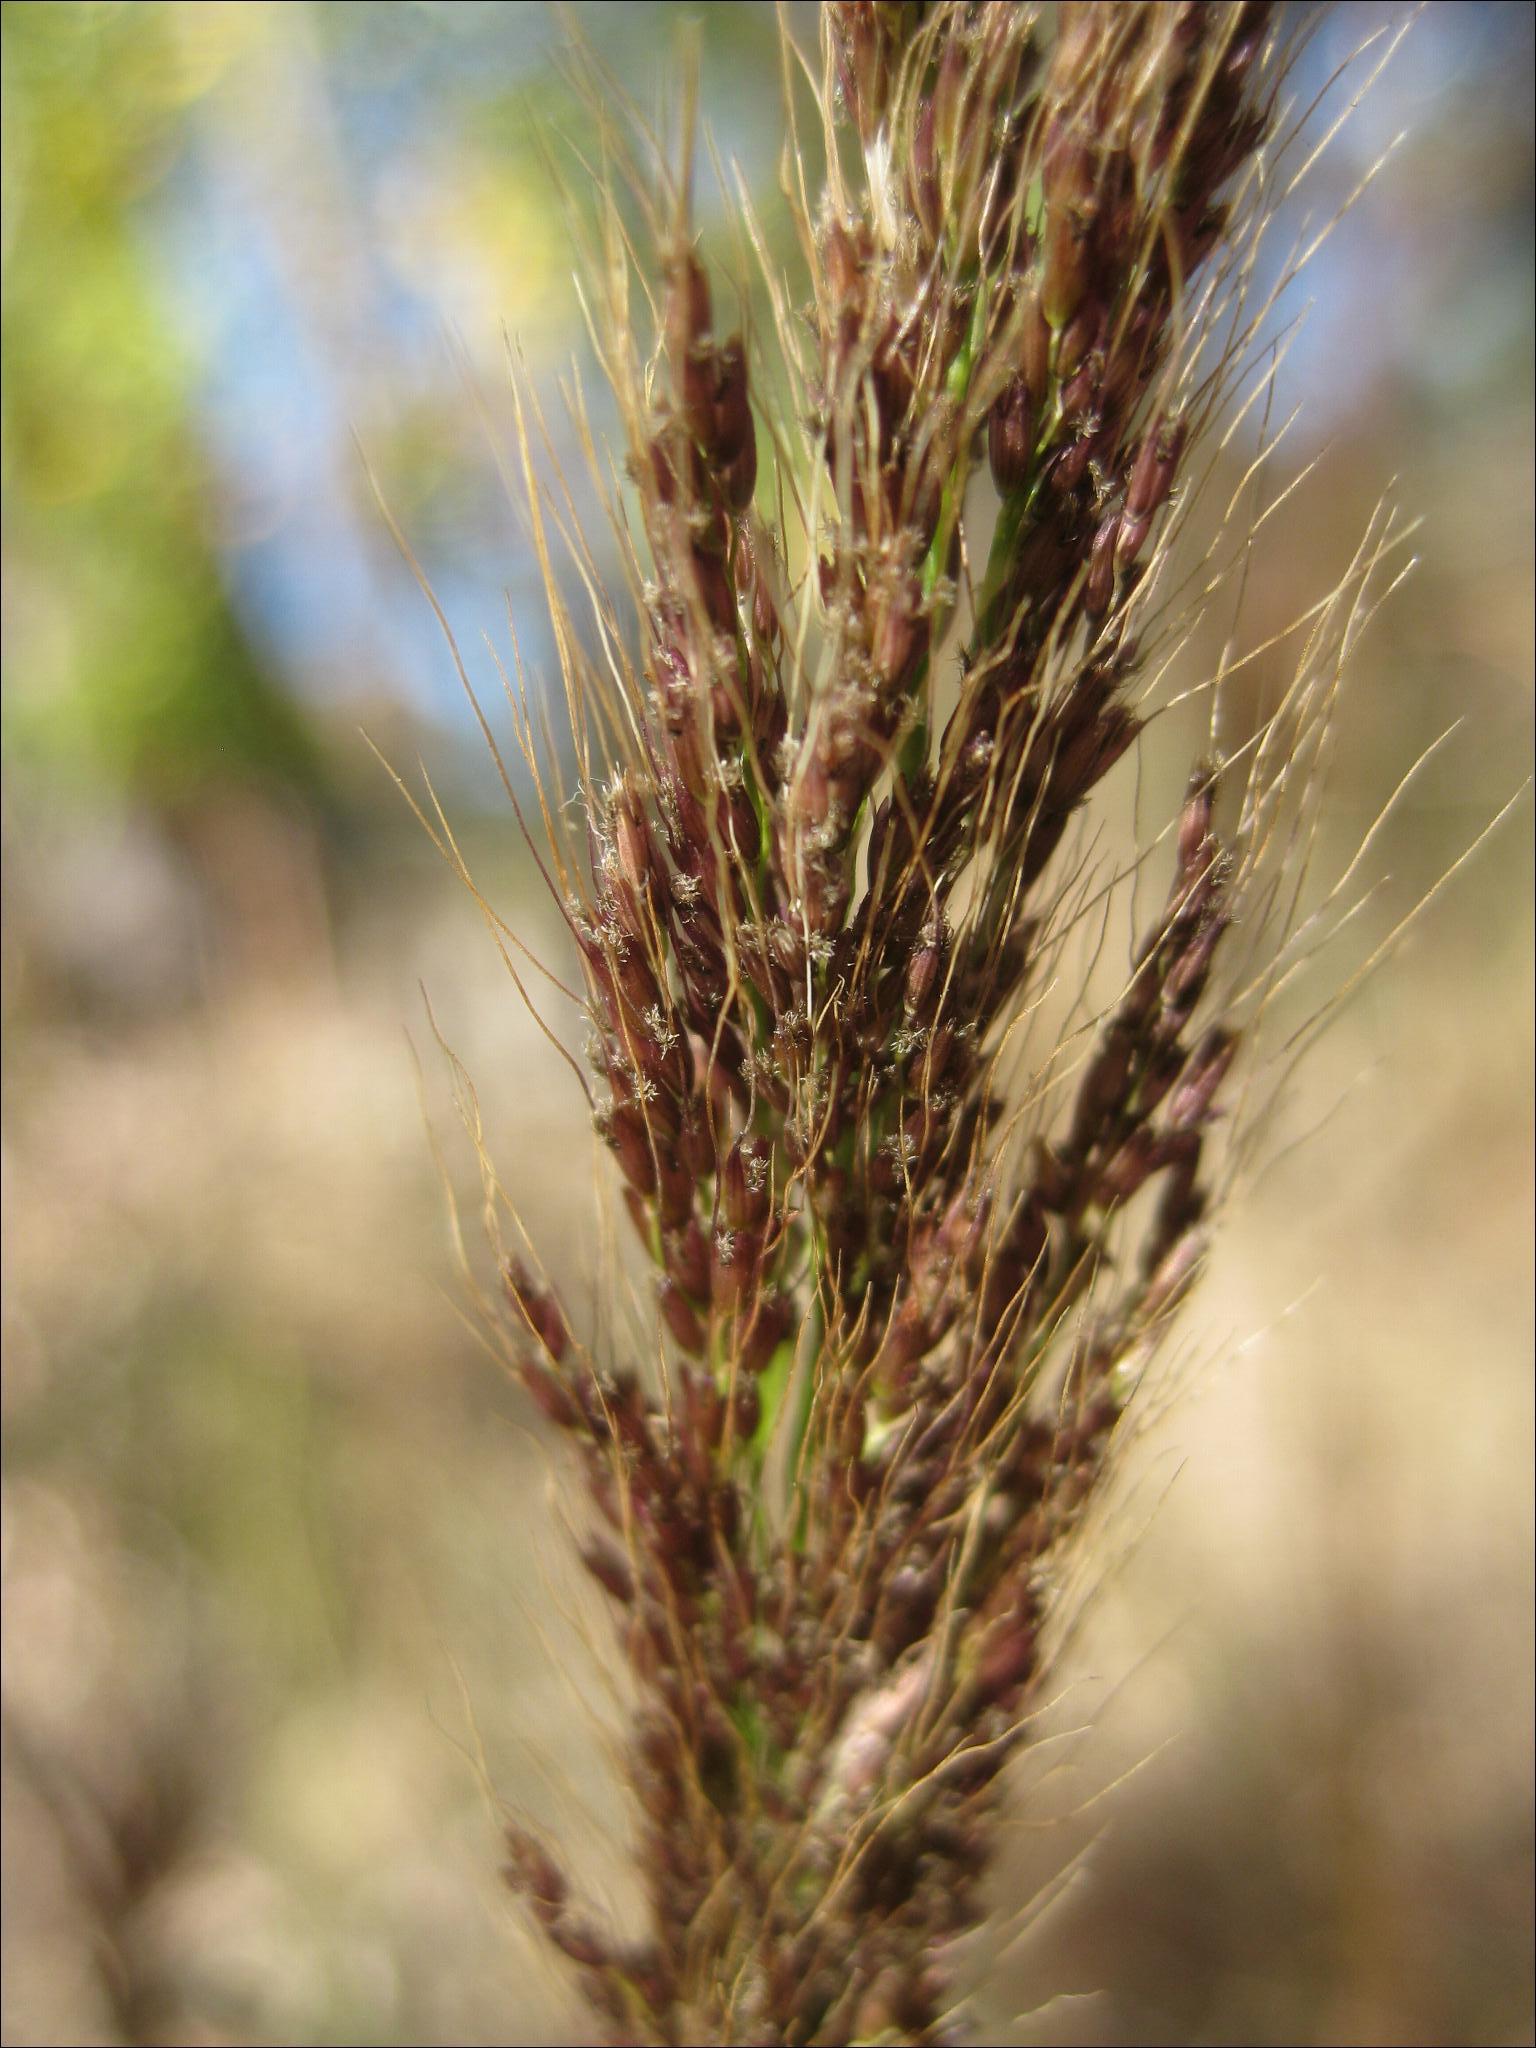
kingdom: Plantae
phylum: Tracheophyta
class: Liliopsida
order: Poales
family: Poaceae
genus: Melinis
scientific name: Melinis minutiflora
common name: Molassesgrass
